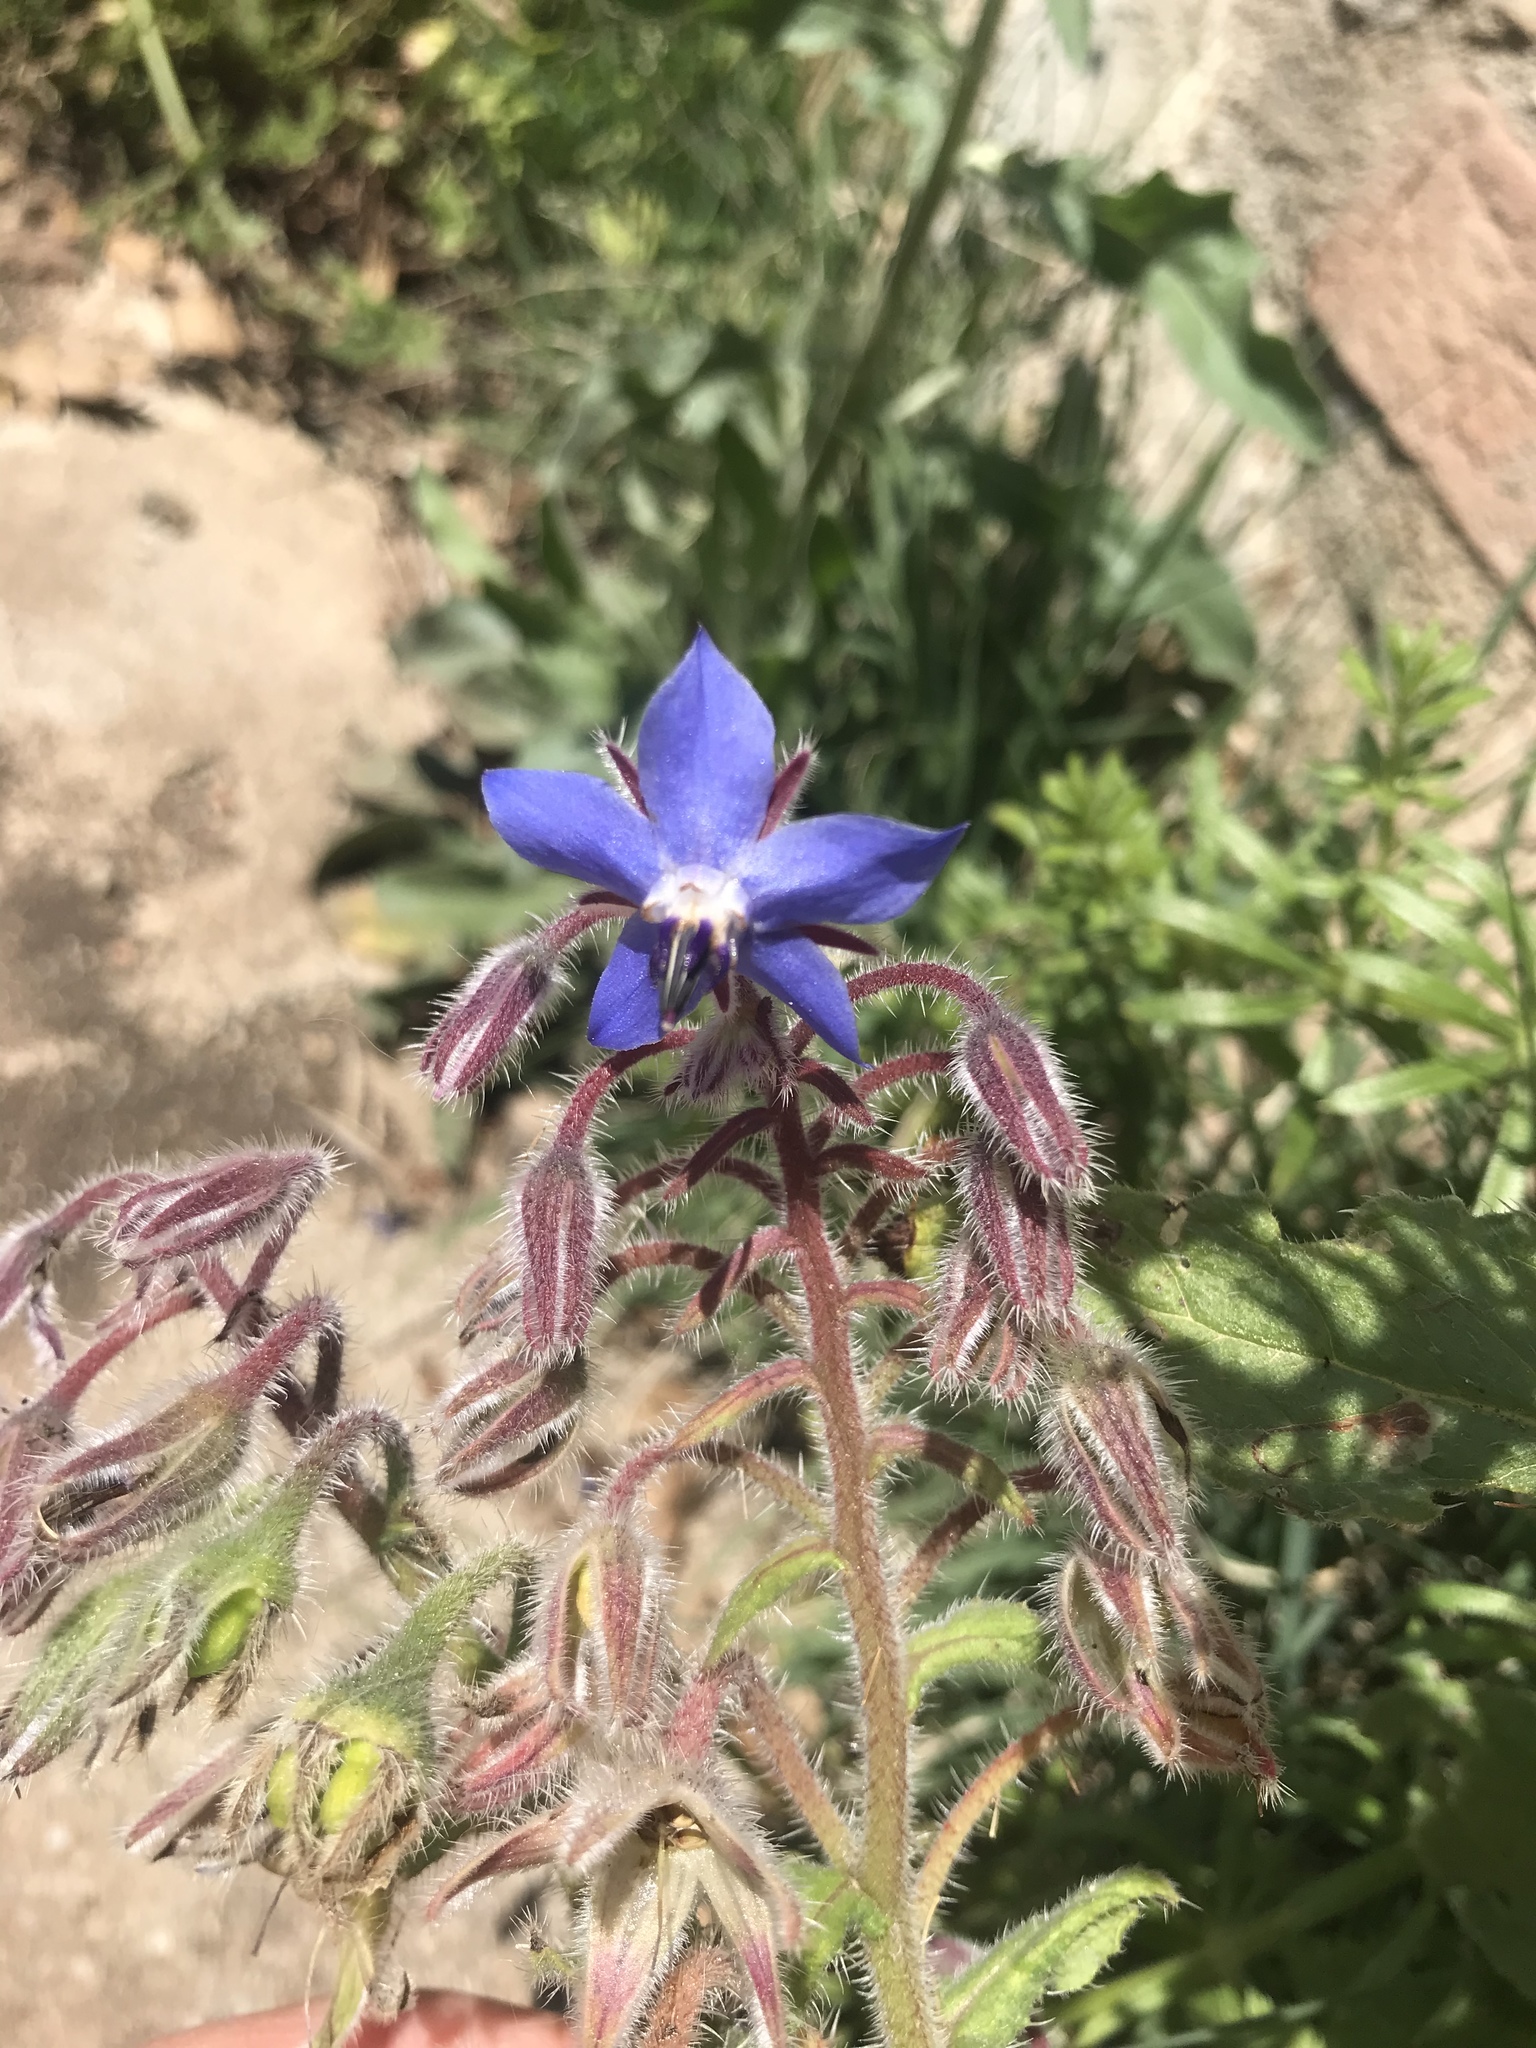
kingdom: Plantae
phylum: Tracheophyta
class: Magnoliopsida
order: Boraginales
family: Boraginaceae
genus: Borago
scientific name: Borago officinalis
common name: Borage
